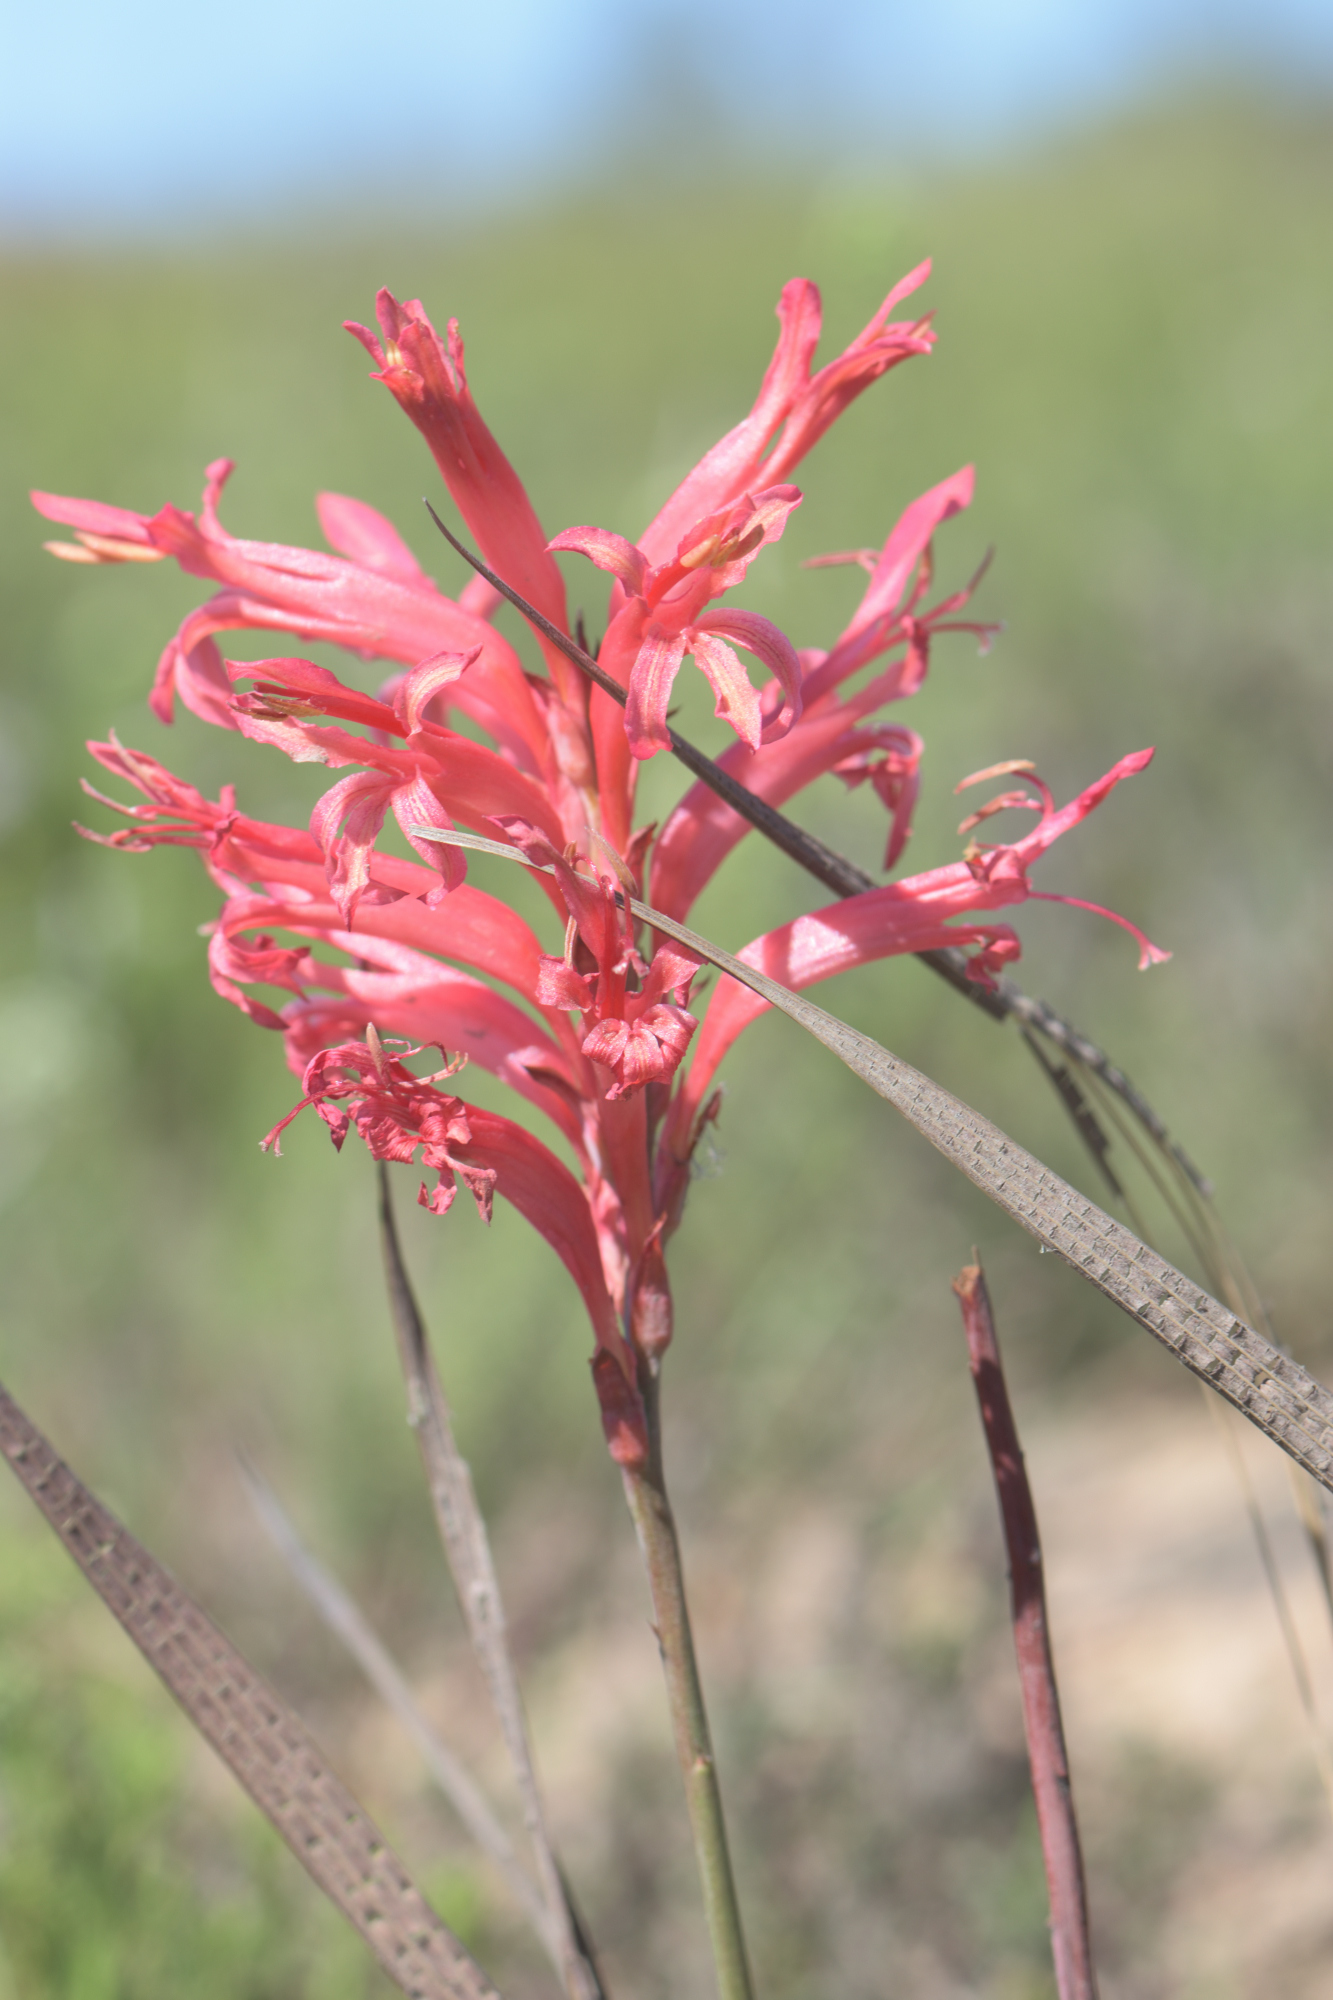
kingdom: Plantae
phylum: Tracheophyta
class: Liliopsida
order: Asparagales
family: Iridaceae
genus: Tritoniopsis
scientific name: Tritoniopsis antholyza
